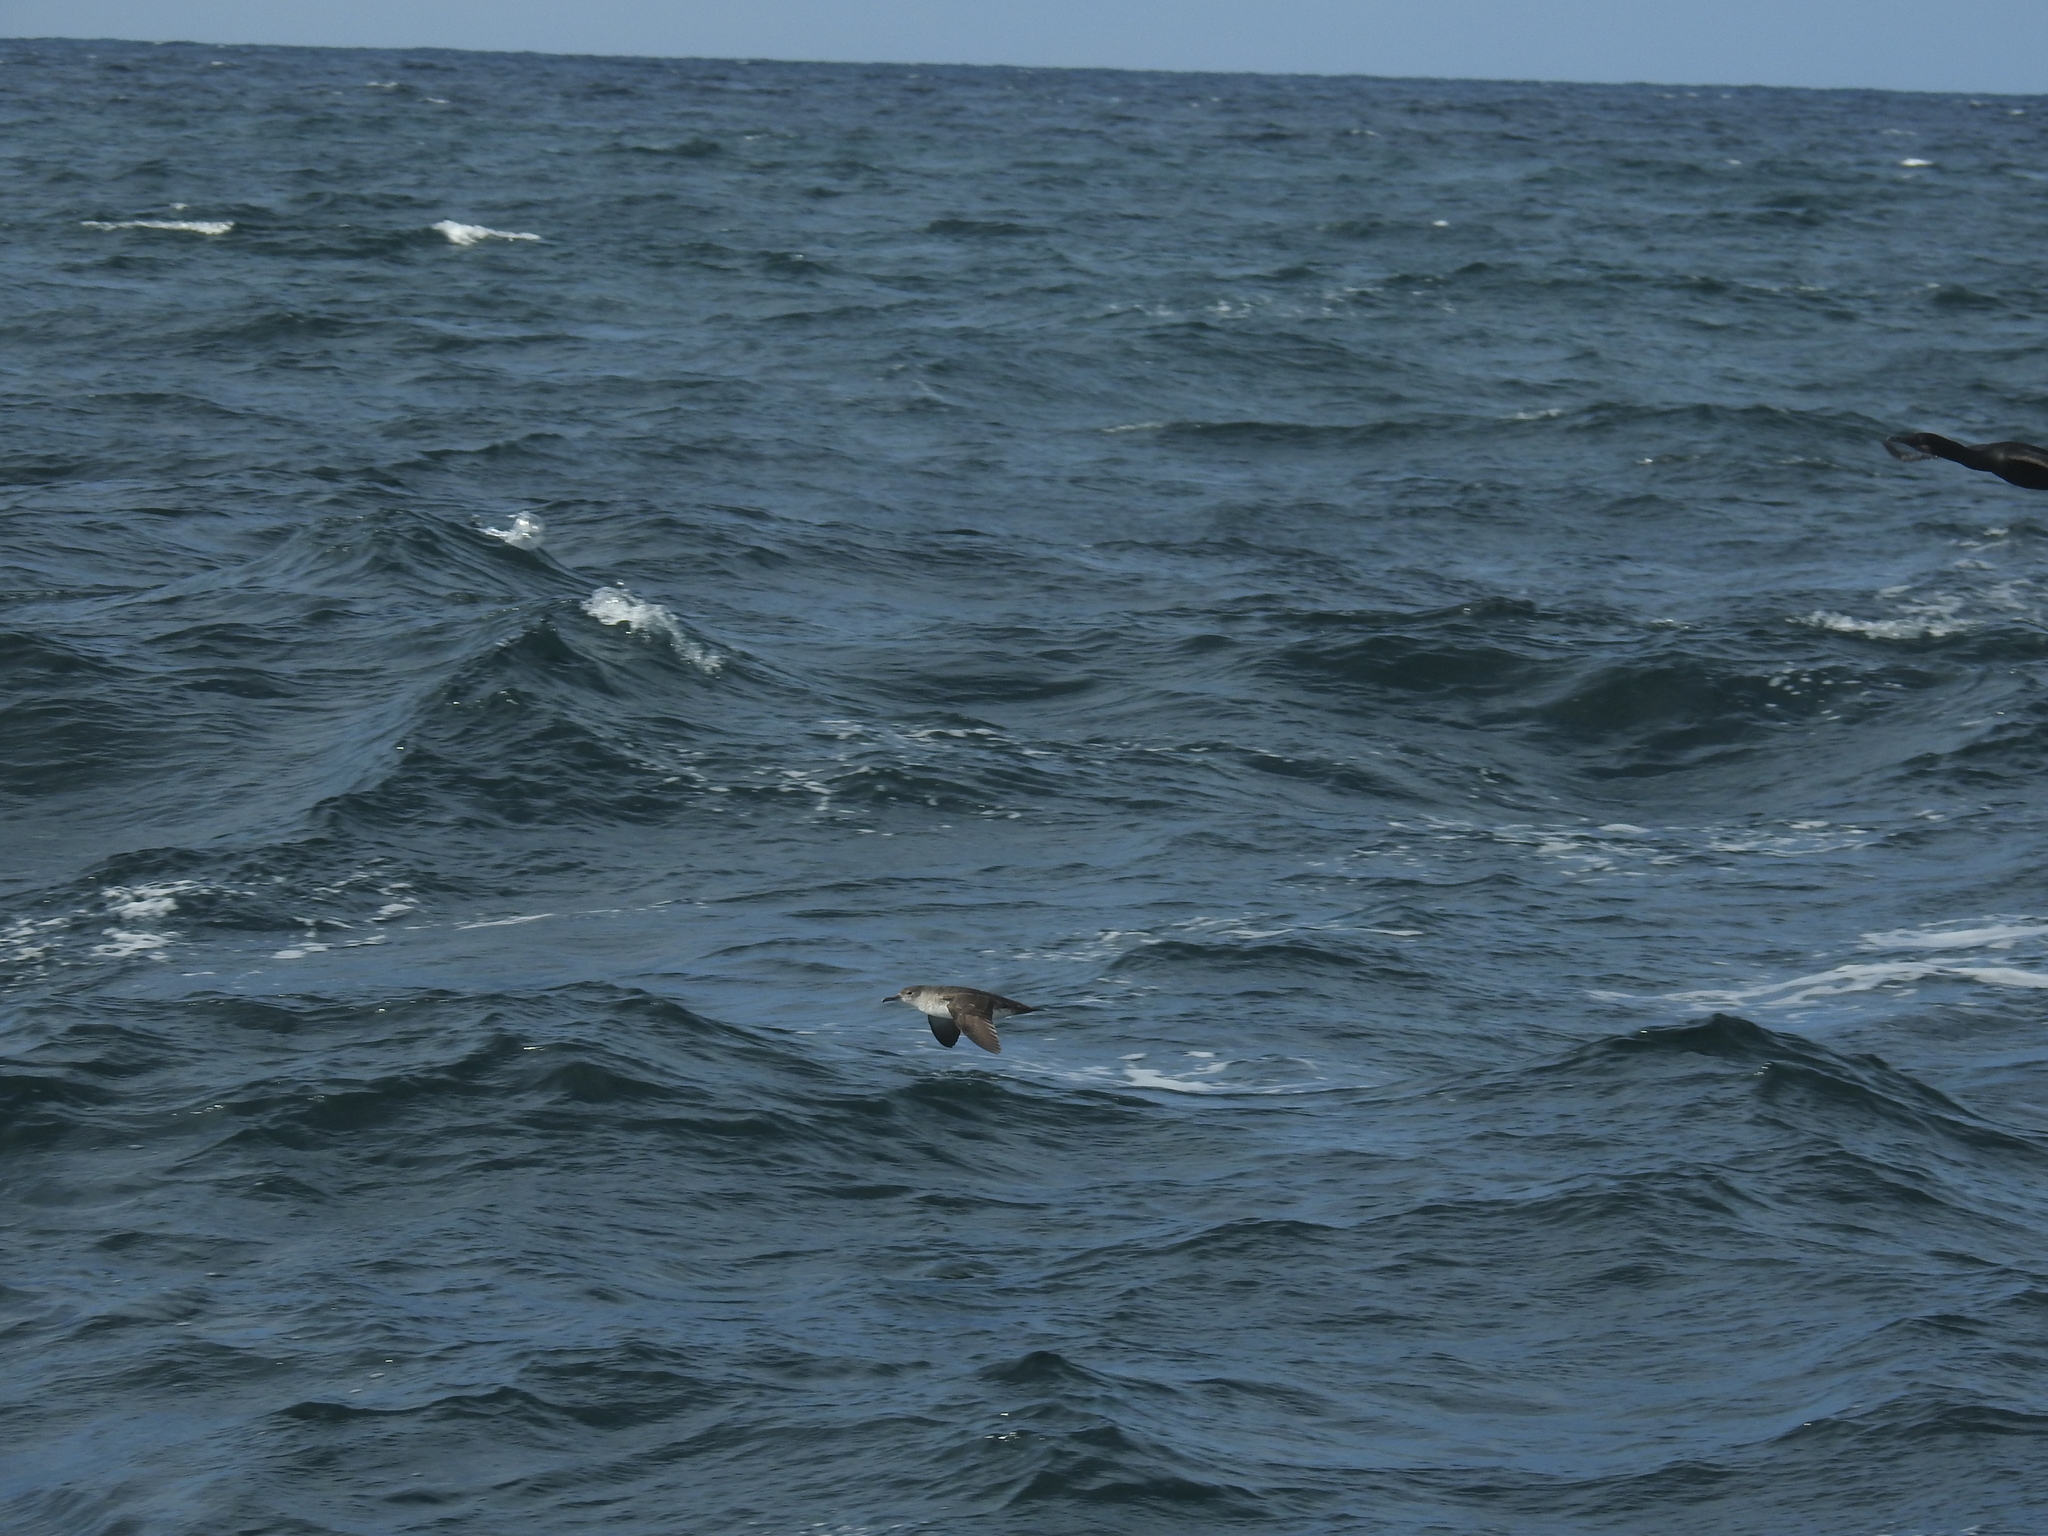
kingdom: Animalia
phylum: Chordata
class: Aves
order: Procellariiformes
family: Procellariidae
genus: Puffinus
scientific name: Puffinus opisthomelas
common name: Black-vented shearwater
